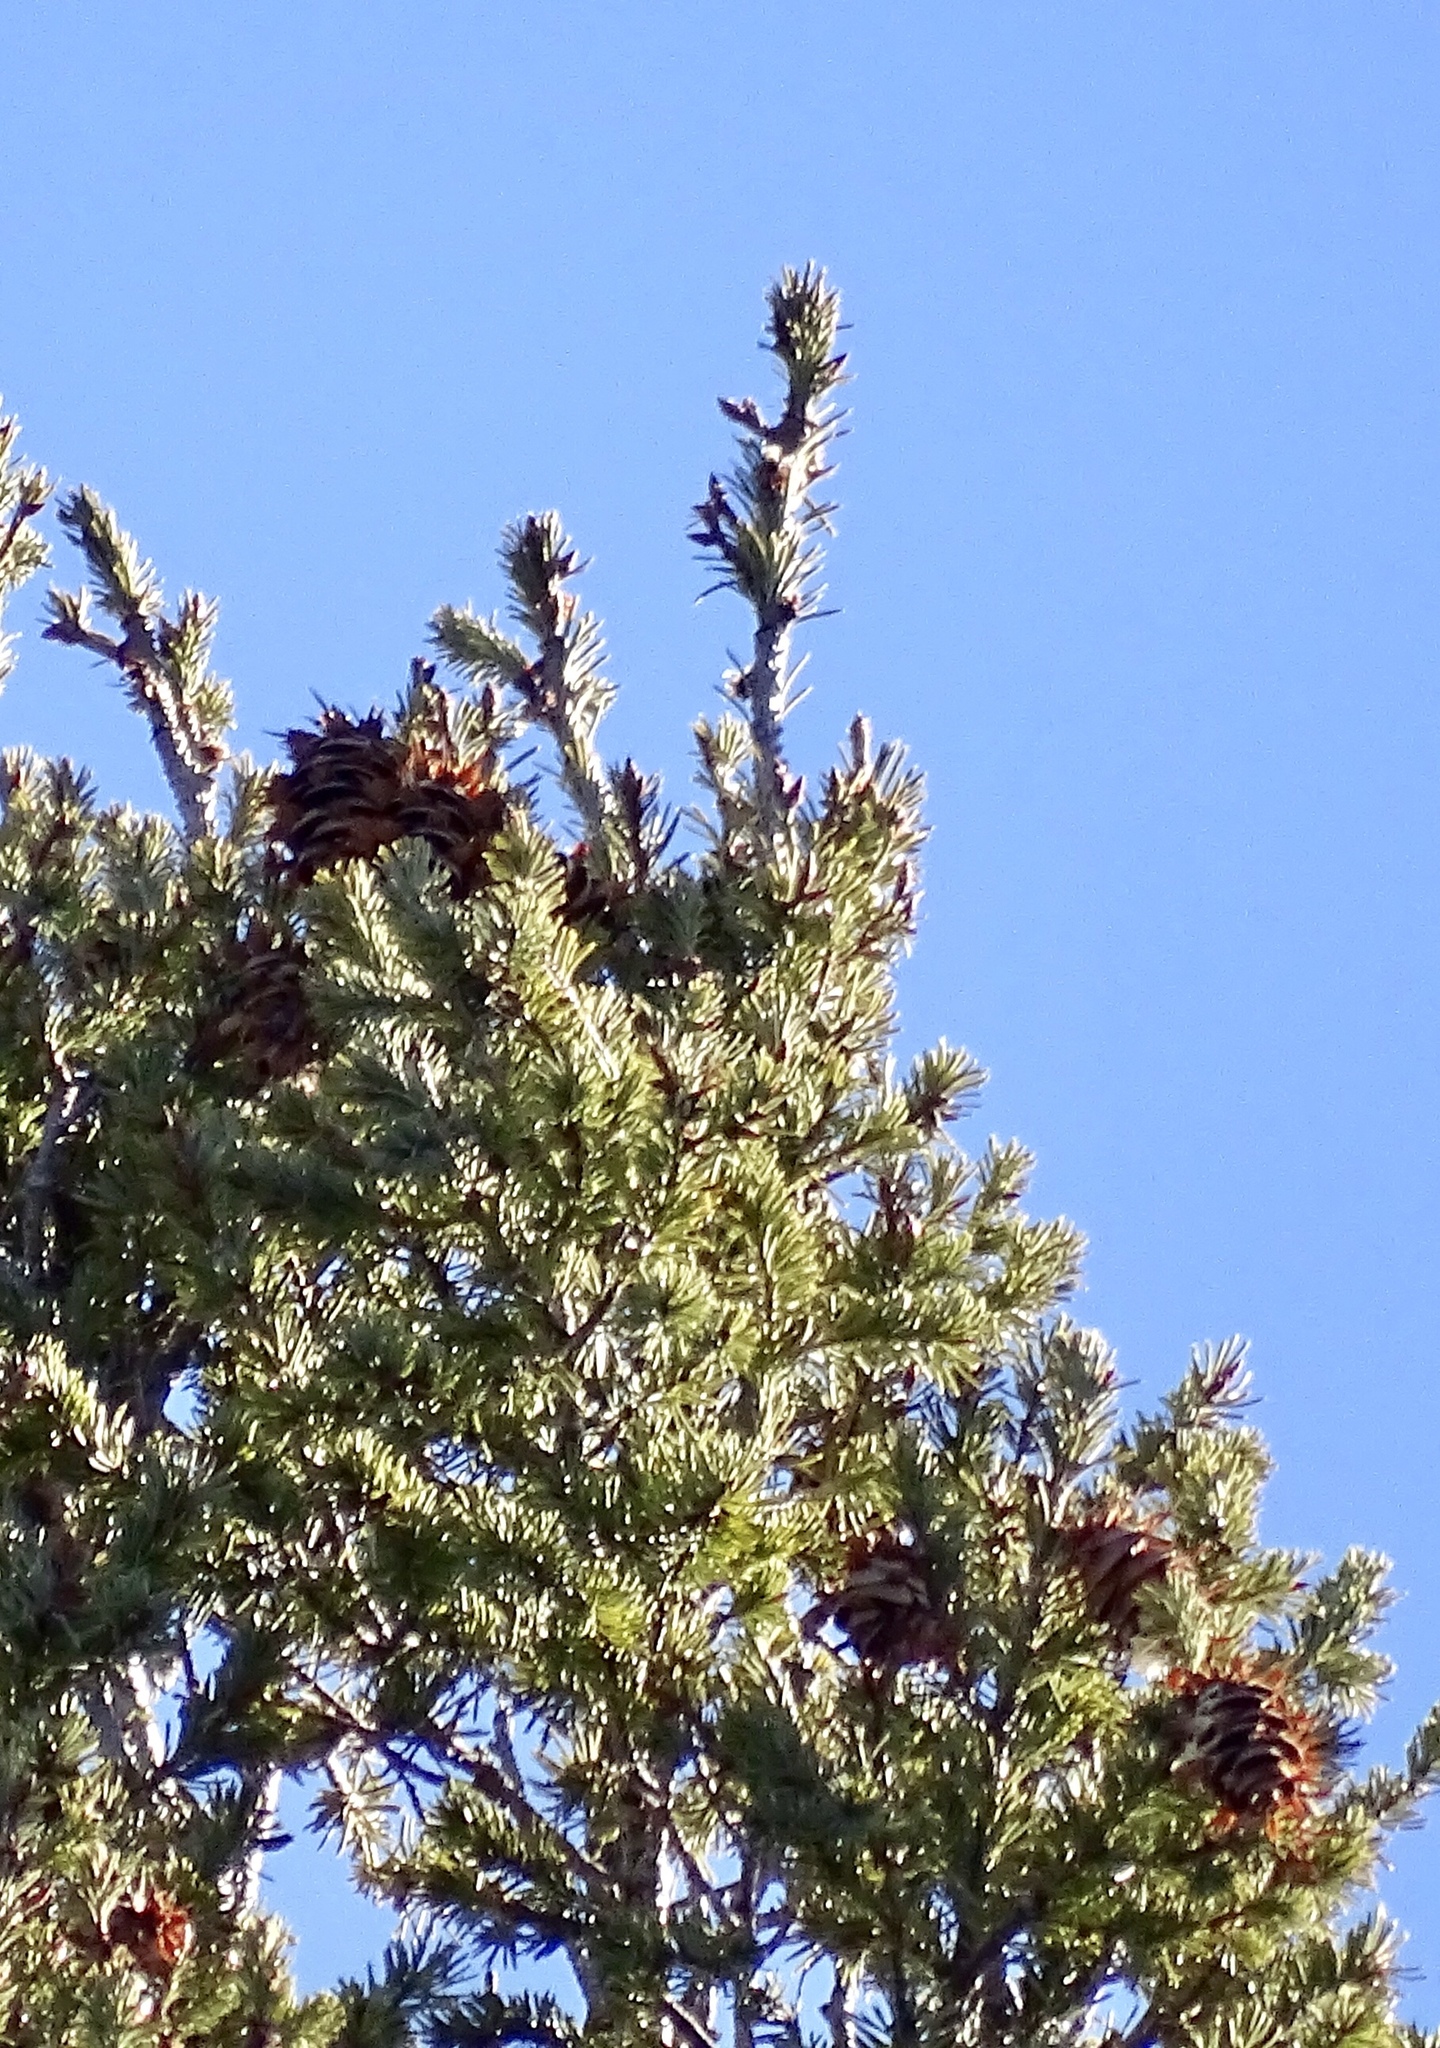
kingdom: Plantae
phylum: Tracheophyta
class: Pinopsida
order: Pinales
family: Pinaceae
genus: Pseudotsuga
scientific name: Pseudotsuga menziesii
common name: Douglas fir
